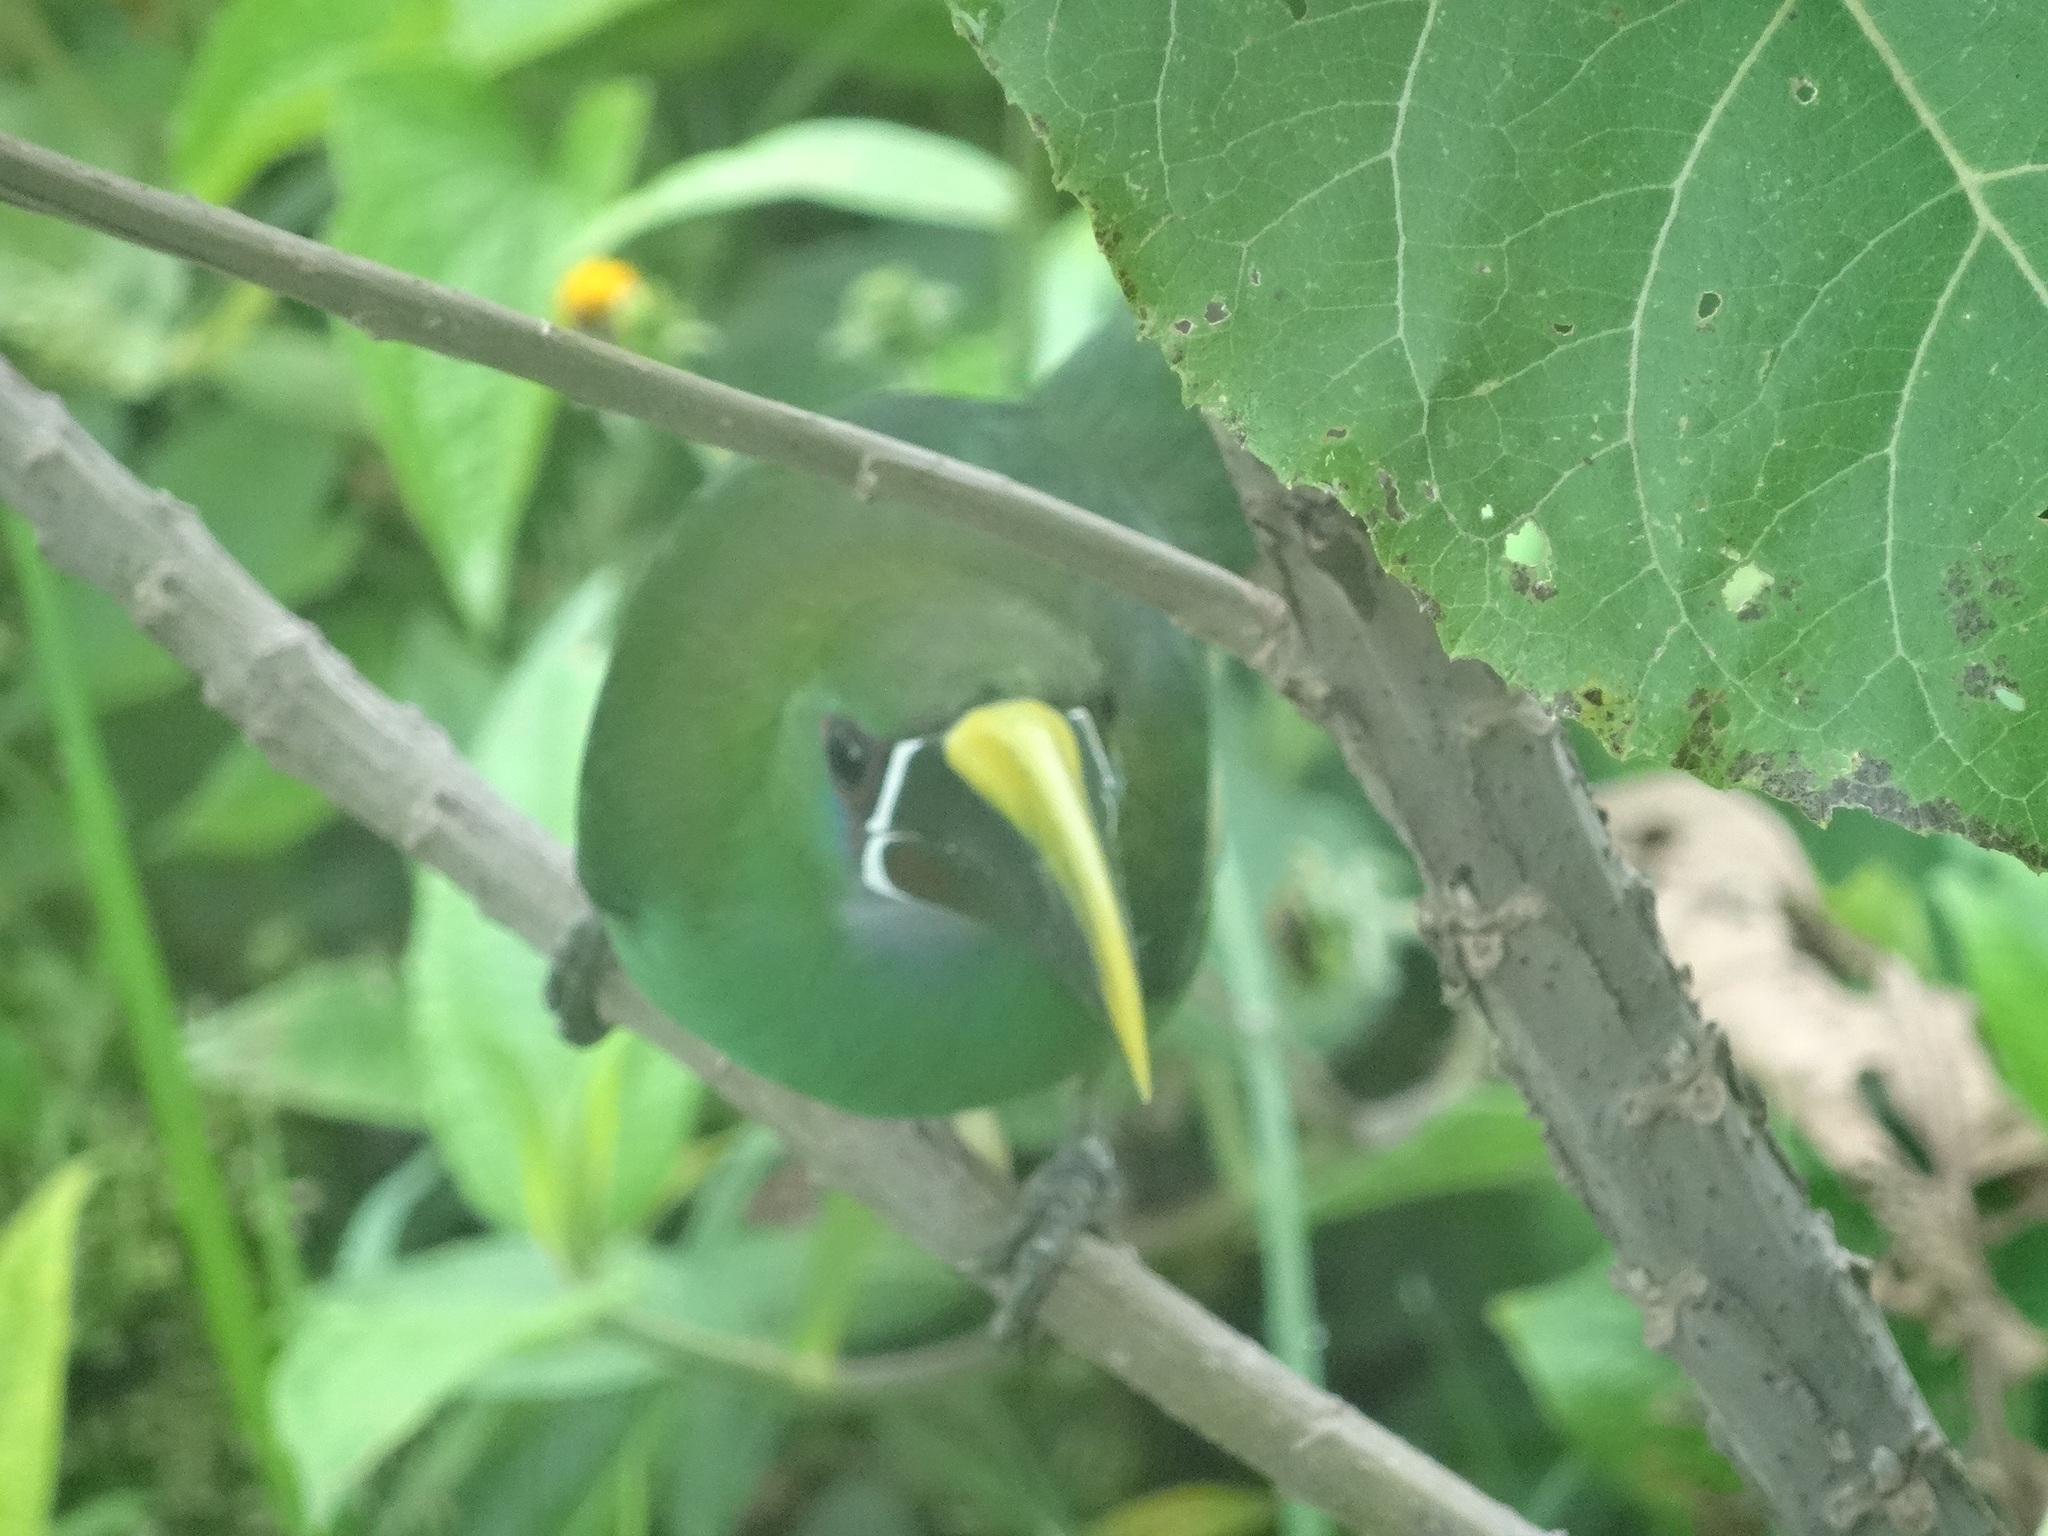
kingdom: Animalia
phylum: Chordata
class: Aves
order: Piciformes
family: Ramphastidae
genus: Aulacorhynchus
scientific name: Aulacorhynchus albivitta
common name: White-throated toucanet
